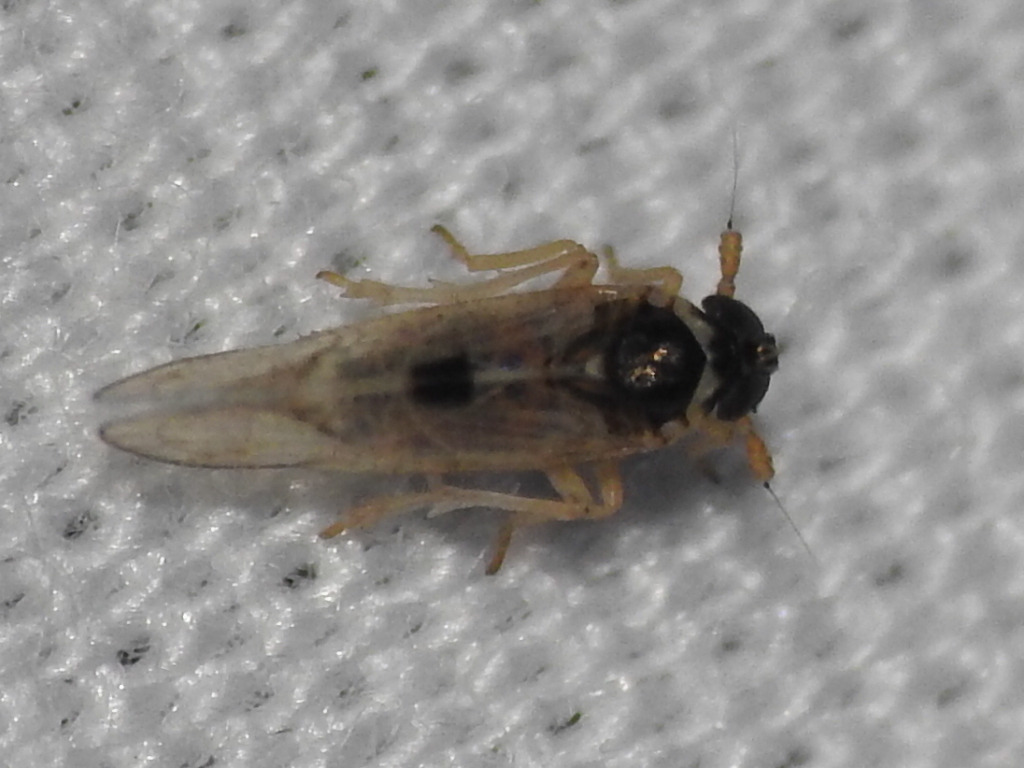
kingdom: Animalia
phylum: Arthropoda
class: Insecta
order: Hemiptera
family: Delphacidae
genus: Chionomus
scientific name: Chionomus
